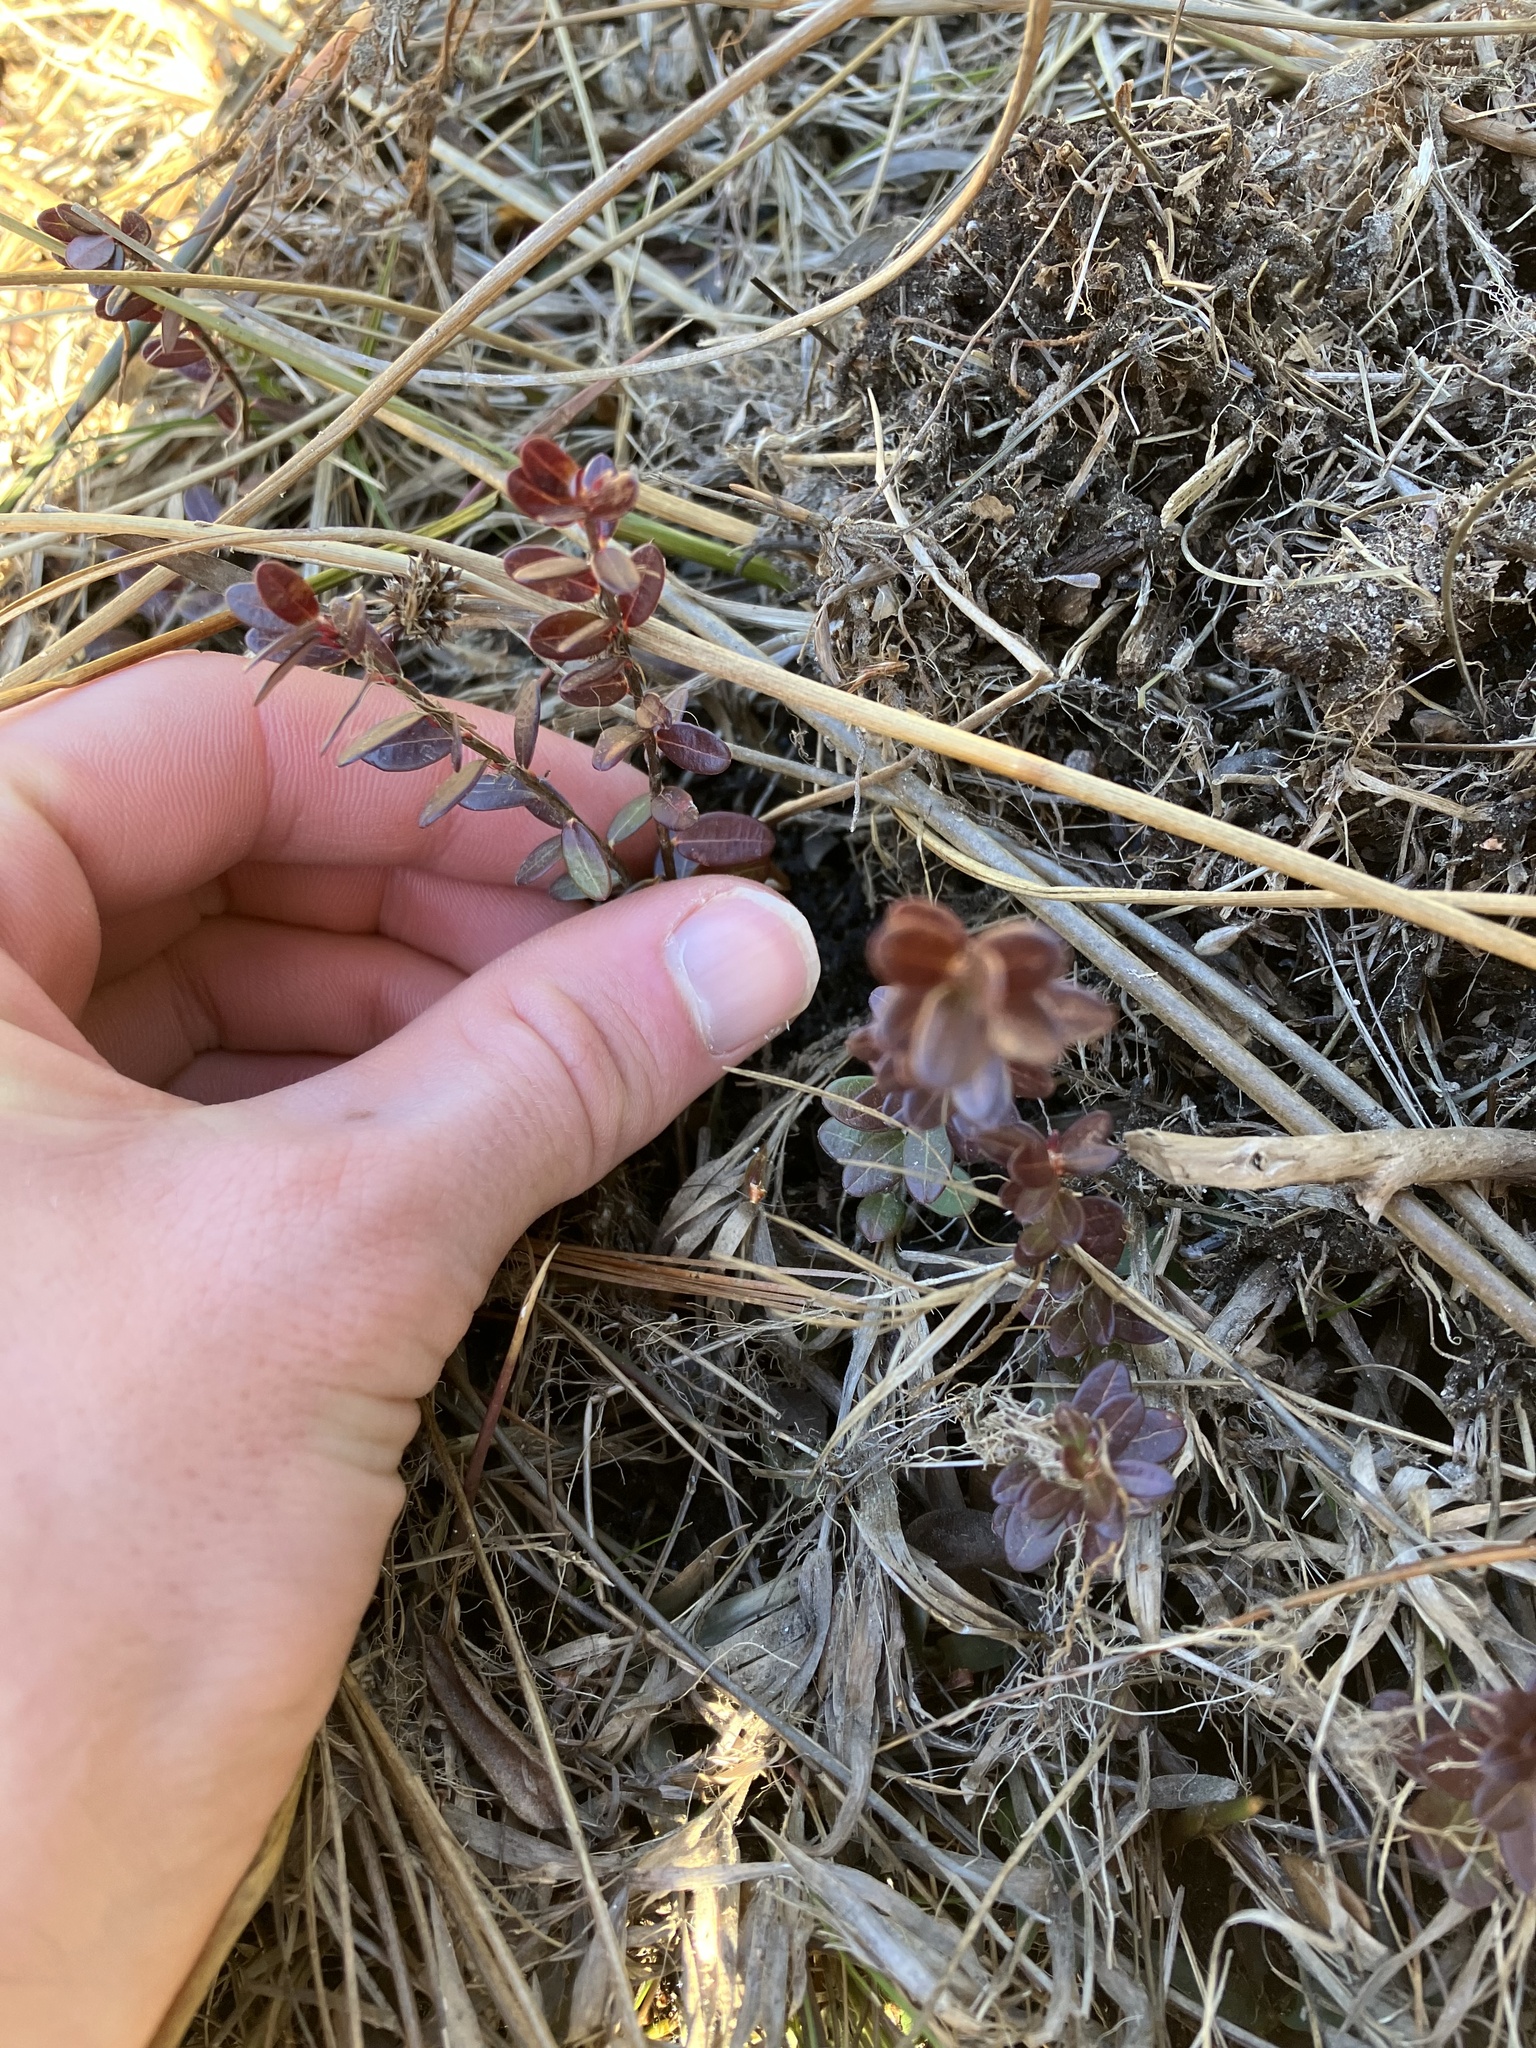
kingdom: Plantae
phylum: Tracheophyta
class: Magnoliopsida
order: Ericales
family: Ericaceae
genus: Vaccinium
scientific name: Vaccinium macrocarpon
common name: American cranberry
